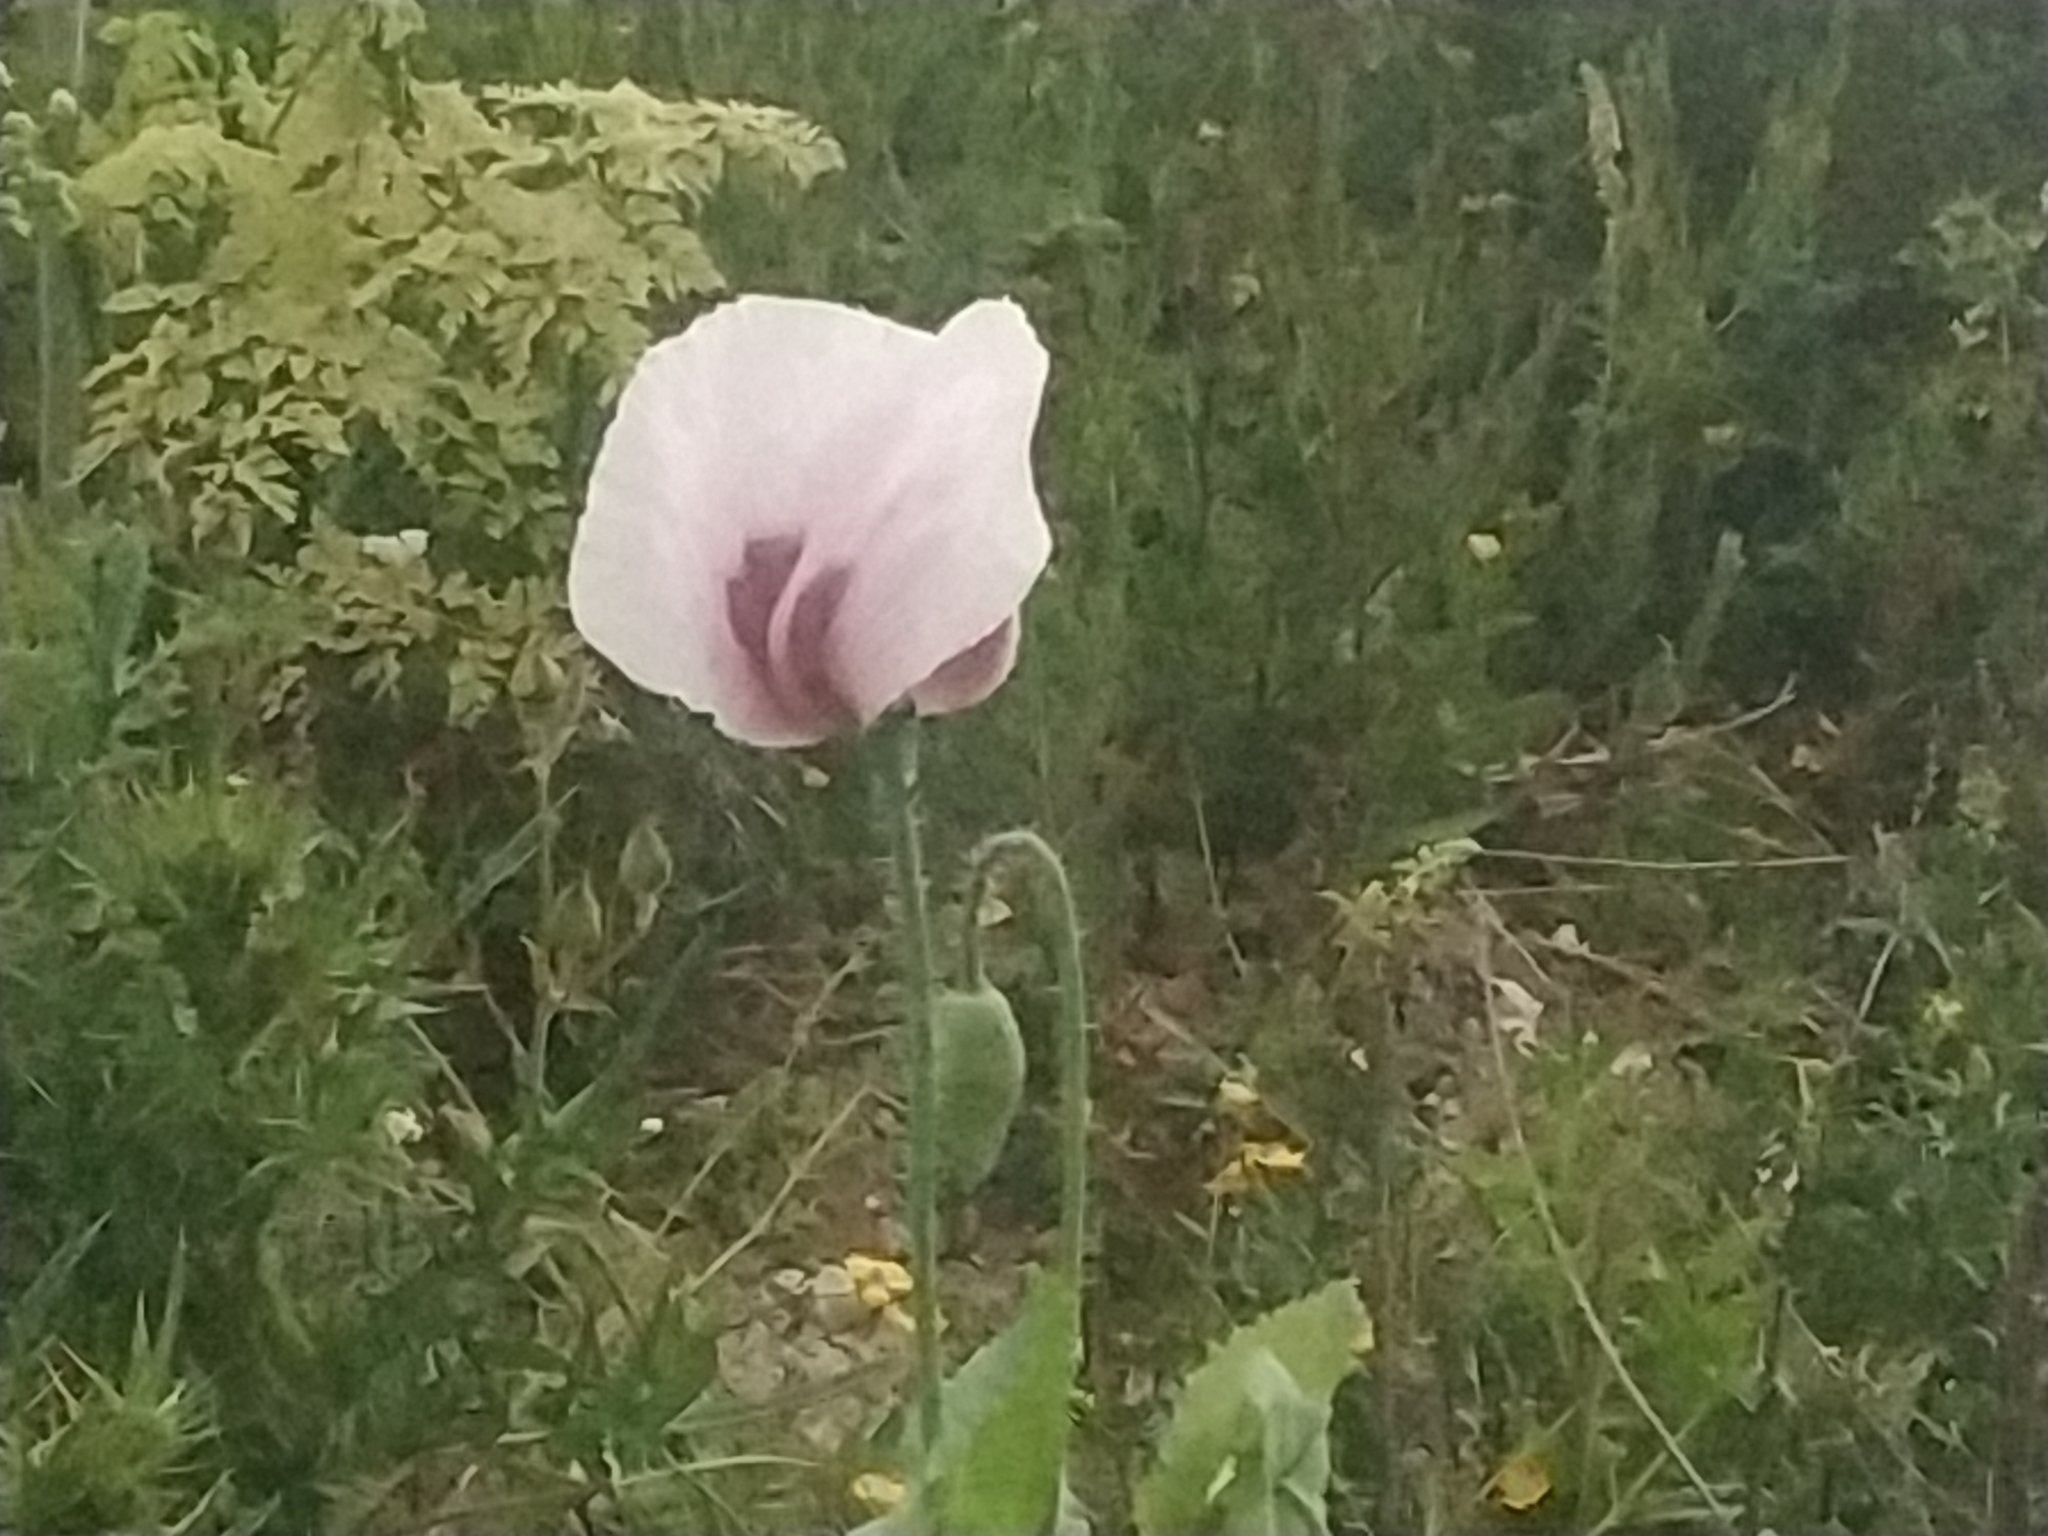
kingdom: Plantae
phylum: Tracheophyta
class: Magnoliopsida
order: Ranunculales
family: Papaveraceae
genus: Papaver
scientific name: Papaver somniferum
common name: Opium poppy
